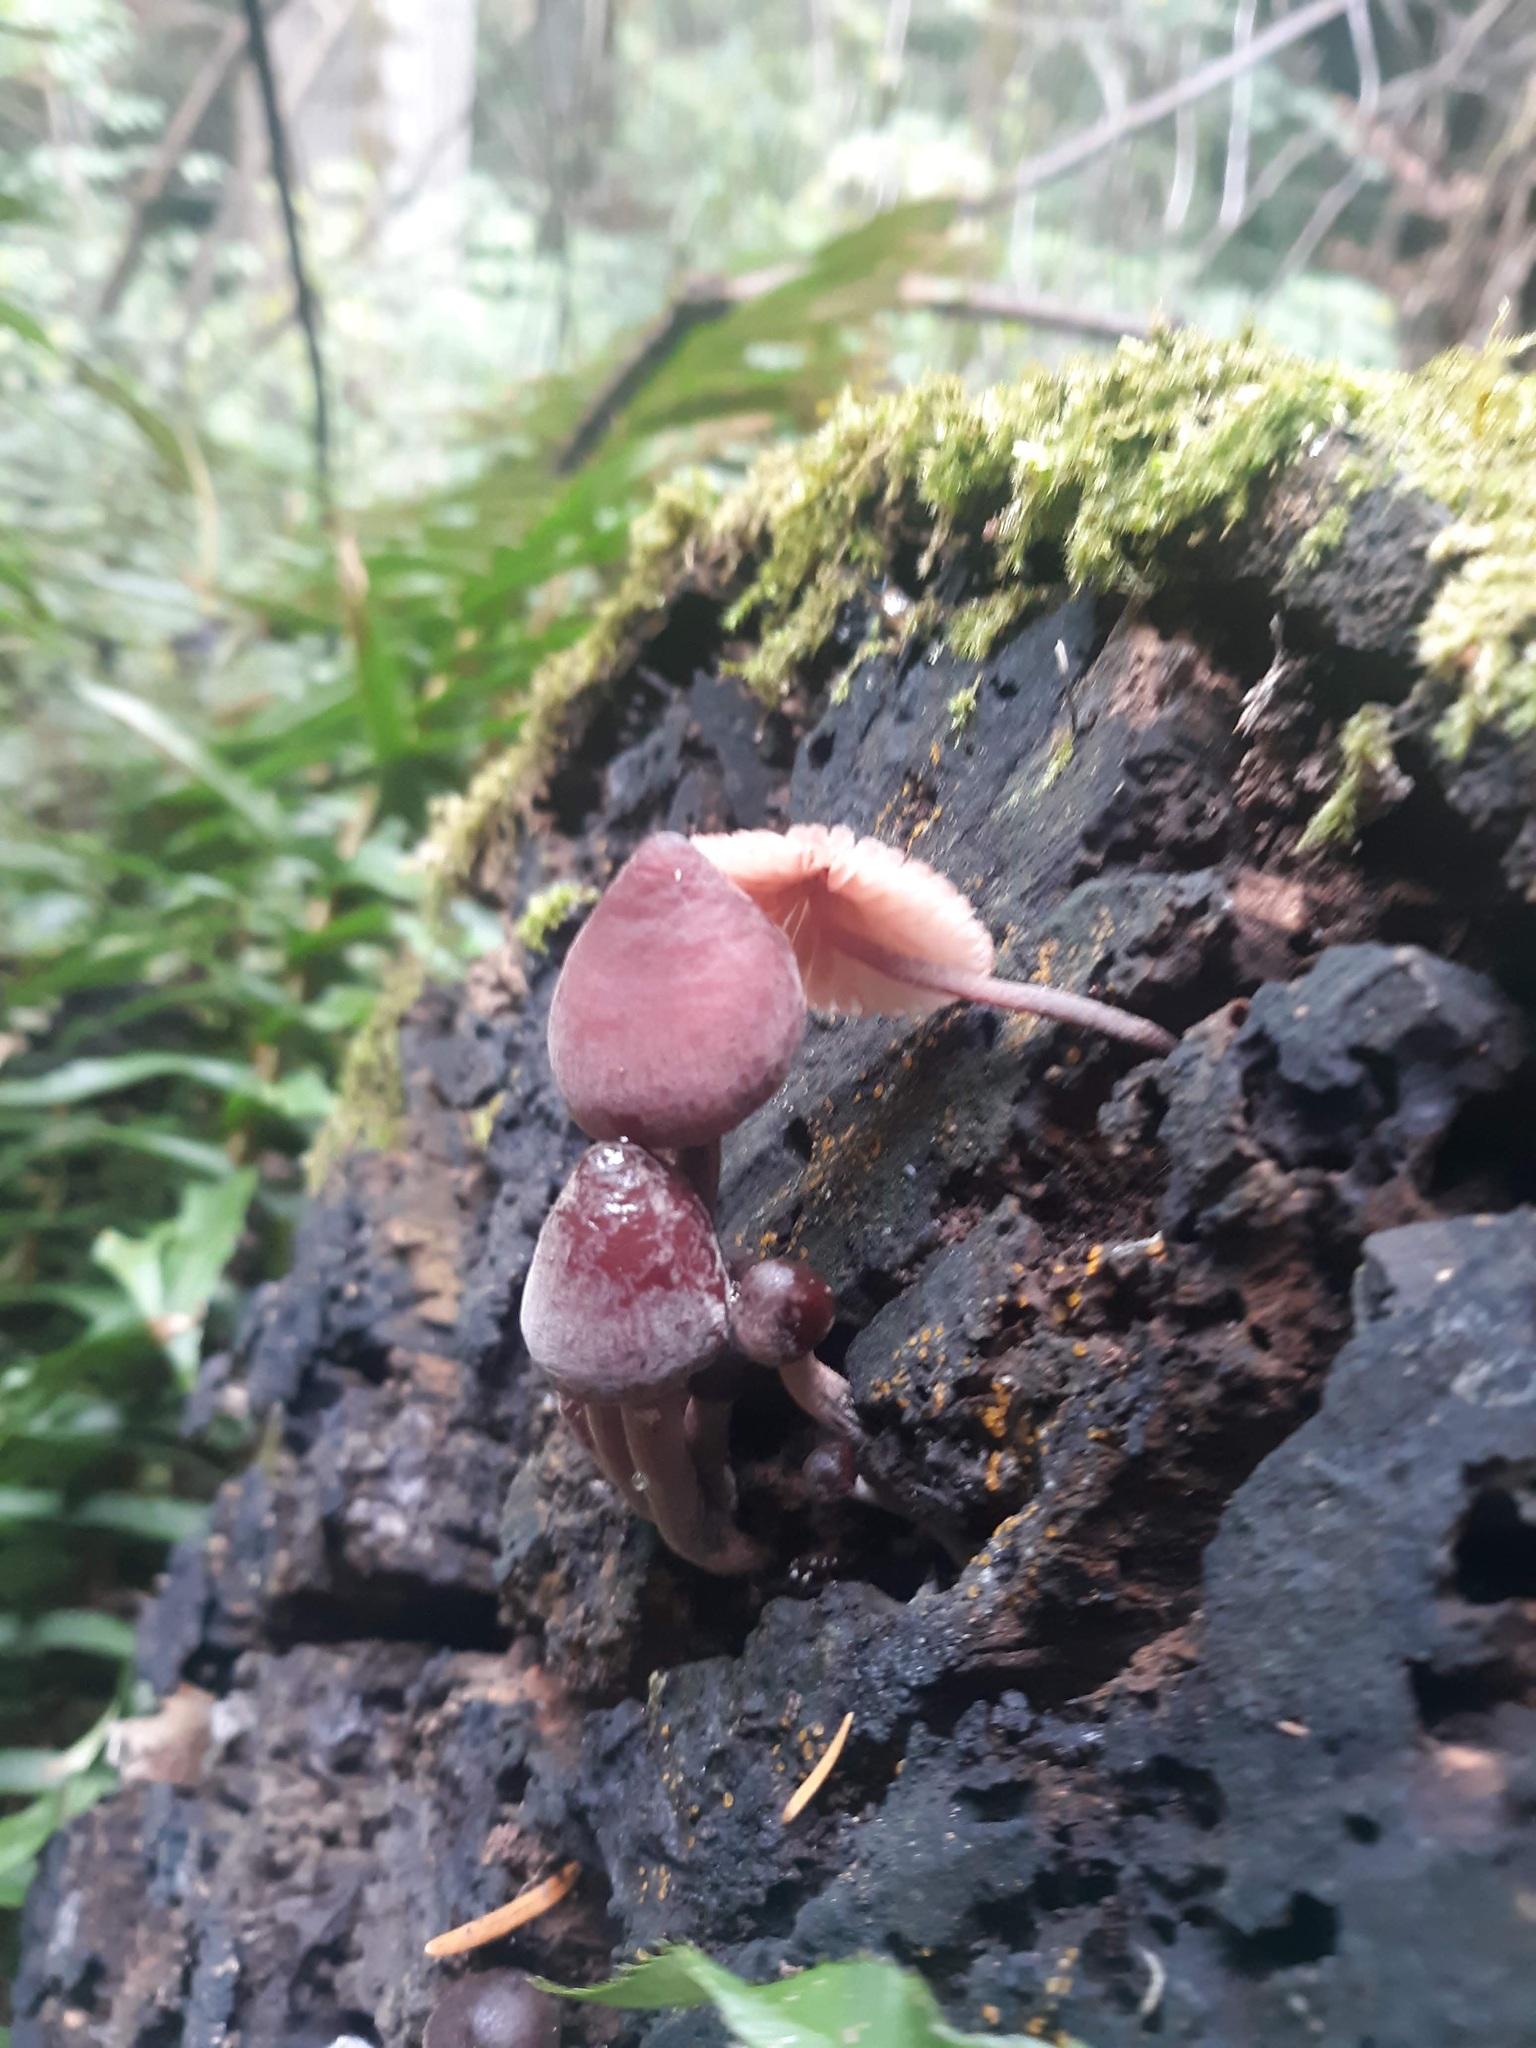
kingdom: Fungi
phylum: Basidiomycota
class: Agaricomycetes
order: Agaricales
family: Mycenaceae
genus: Mycena
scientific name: Mycena haematopus
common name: Burgundydrop bonnet
